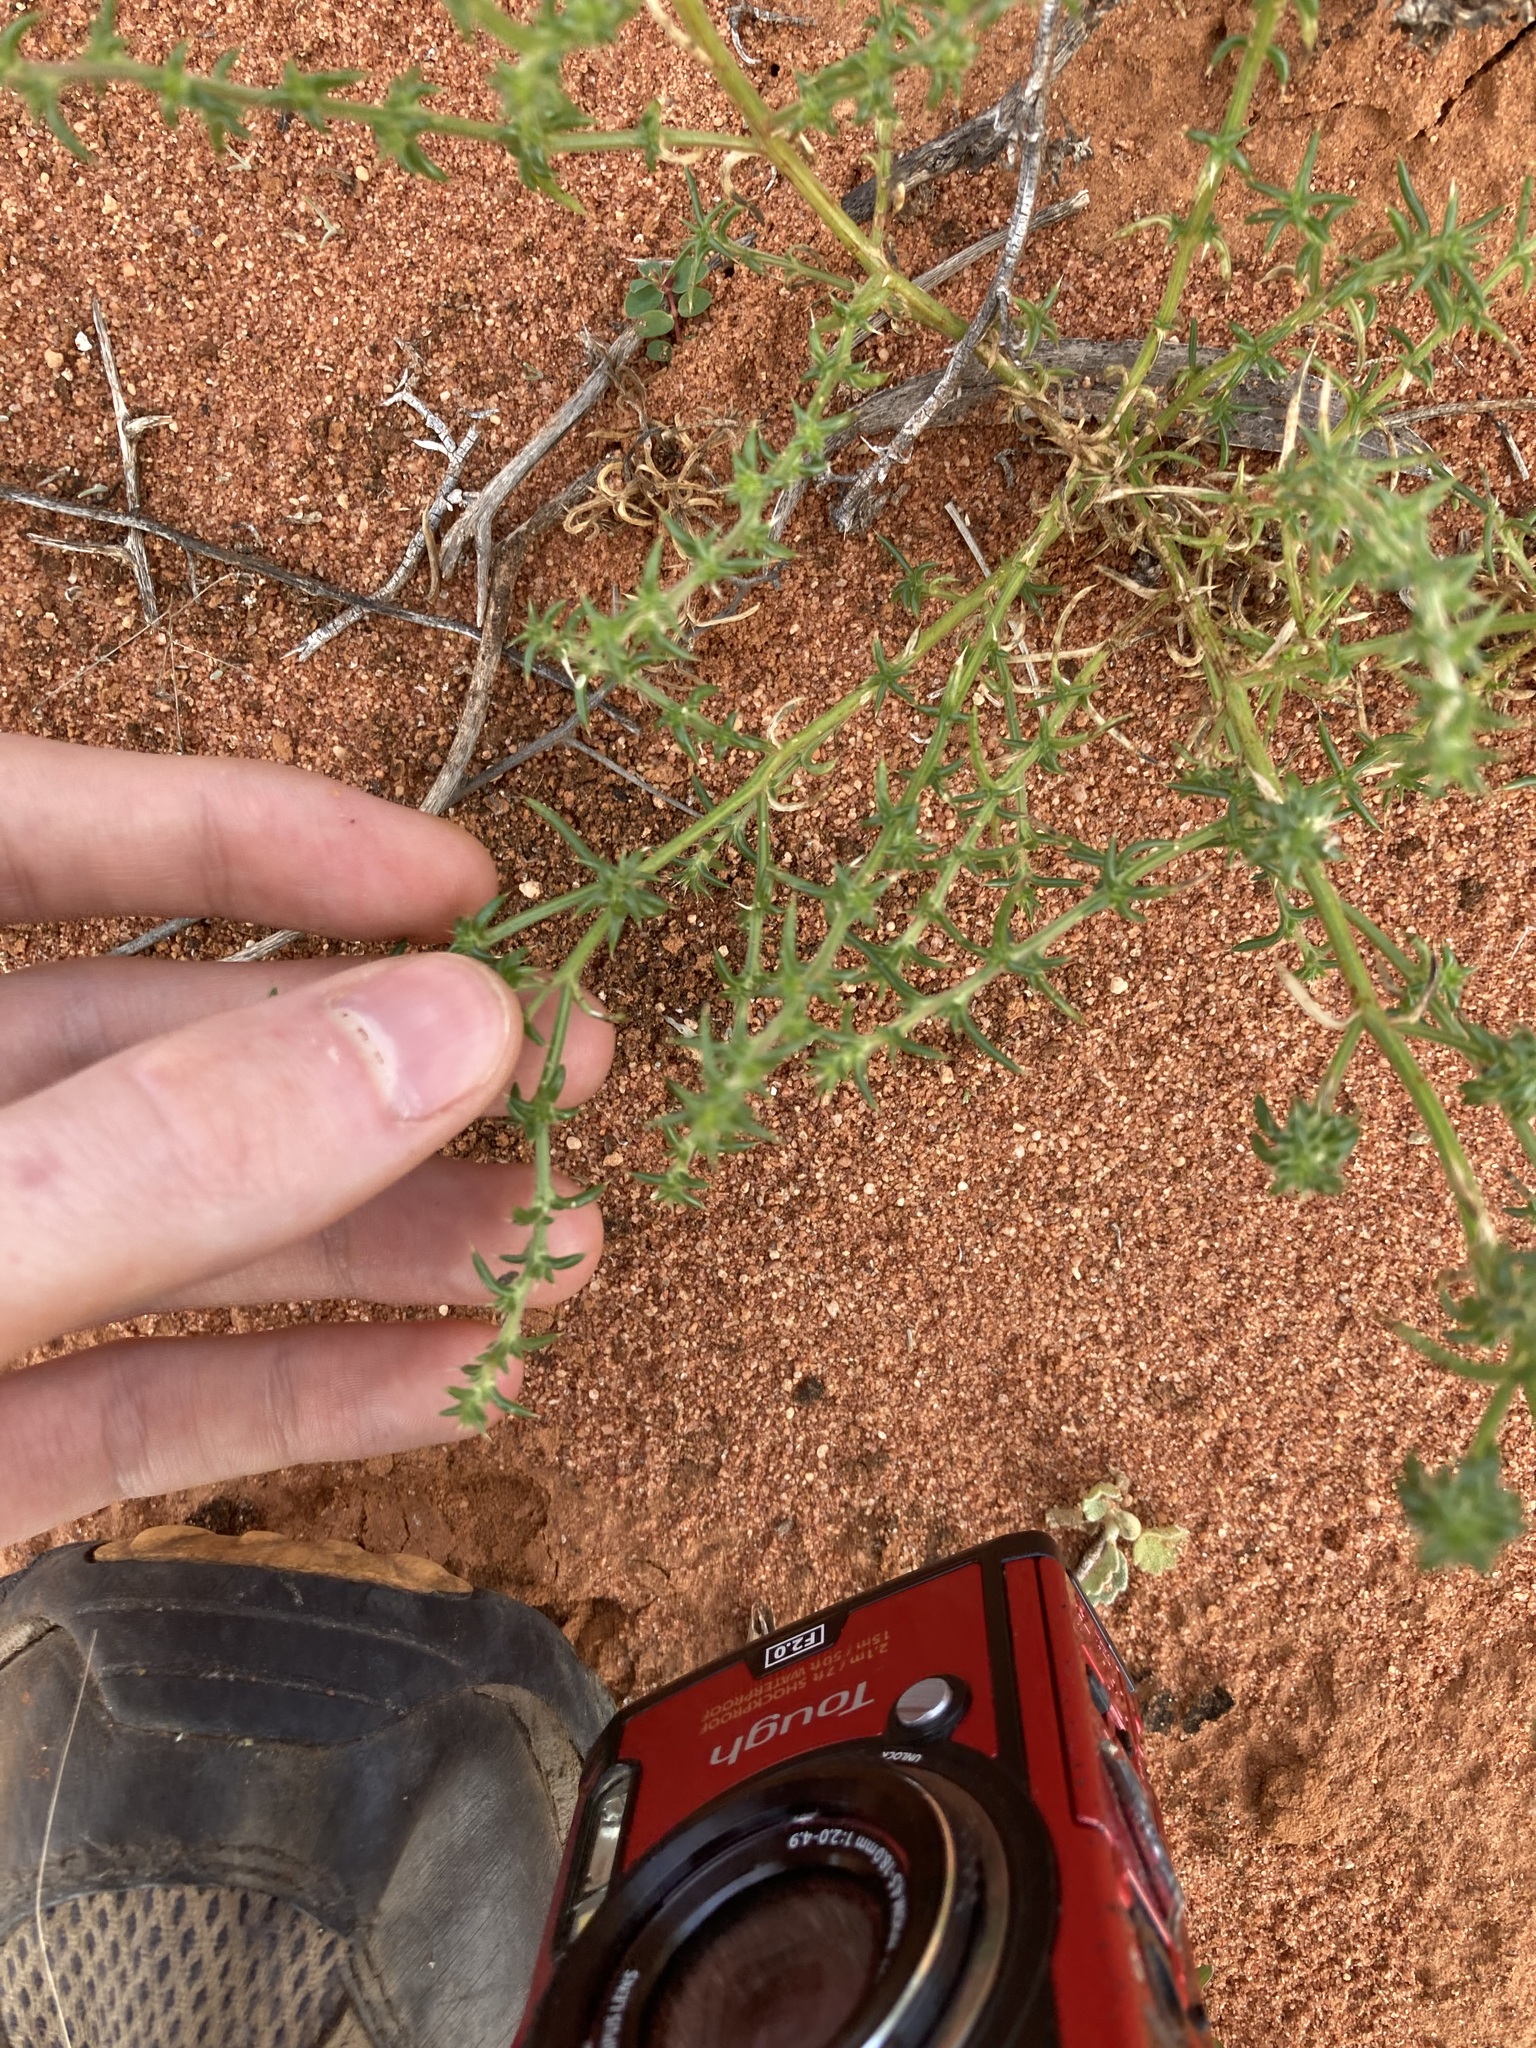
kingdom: Plantae
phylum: Tracheophyta
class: Magnoliopsida
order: Caryophyllales
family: Amaranthaceae
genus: Salsola
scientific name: Salsola australis
